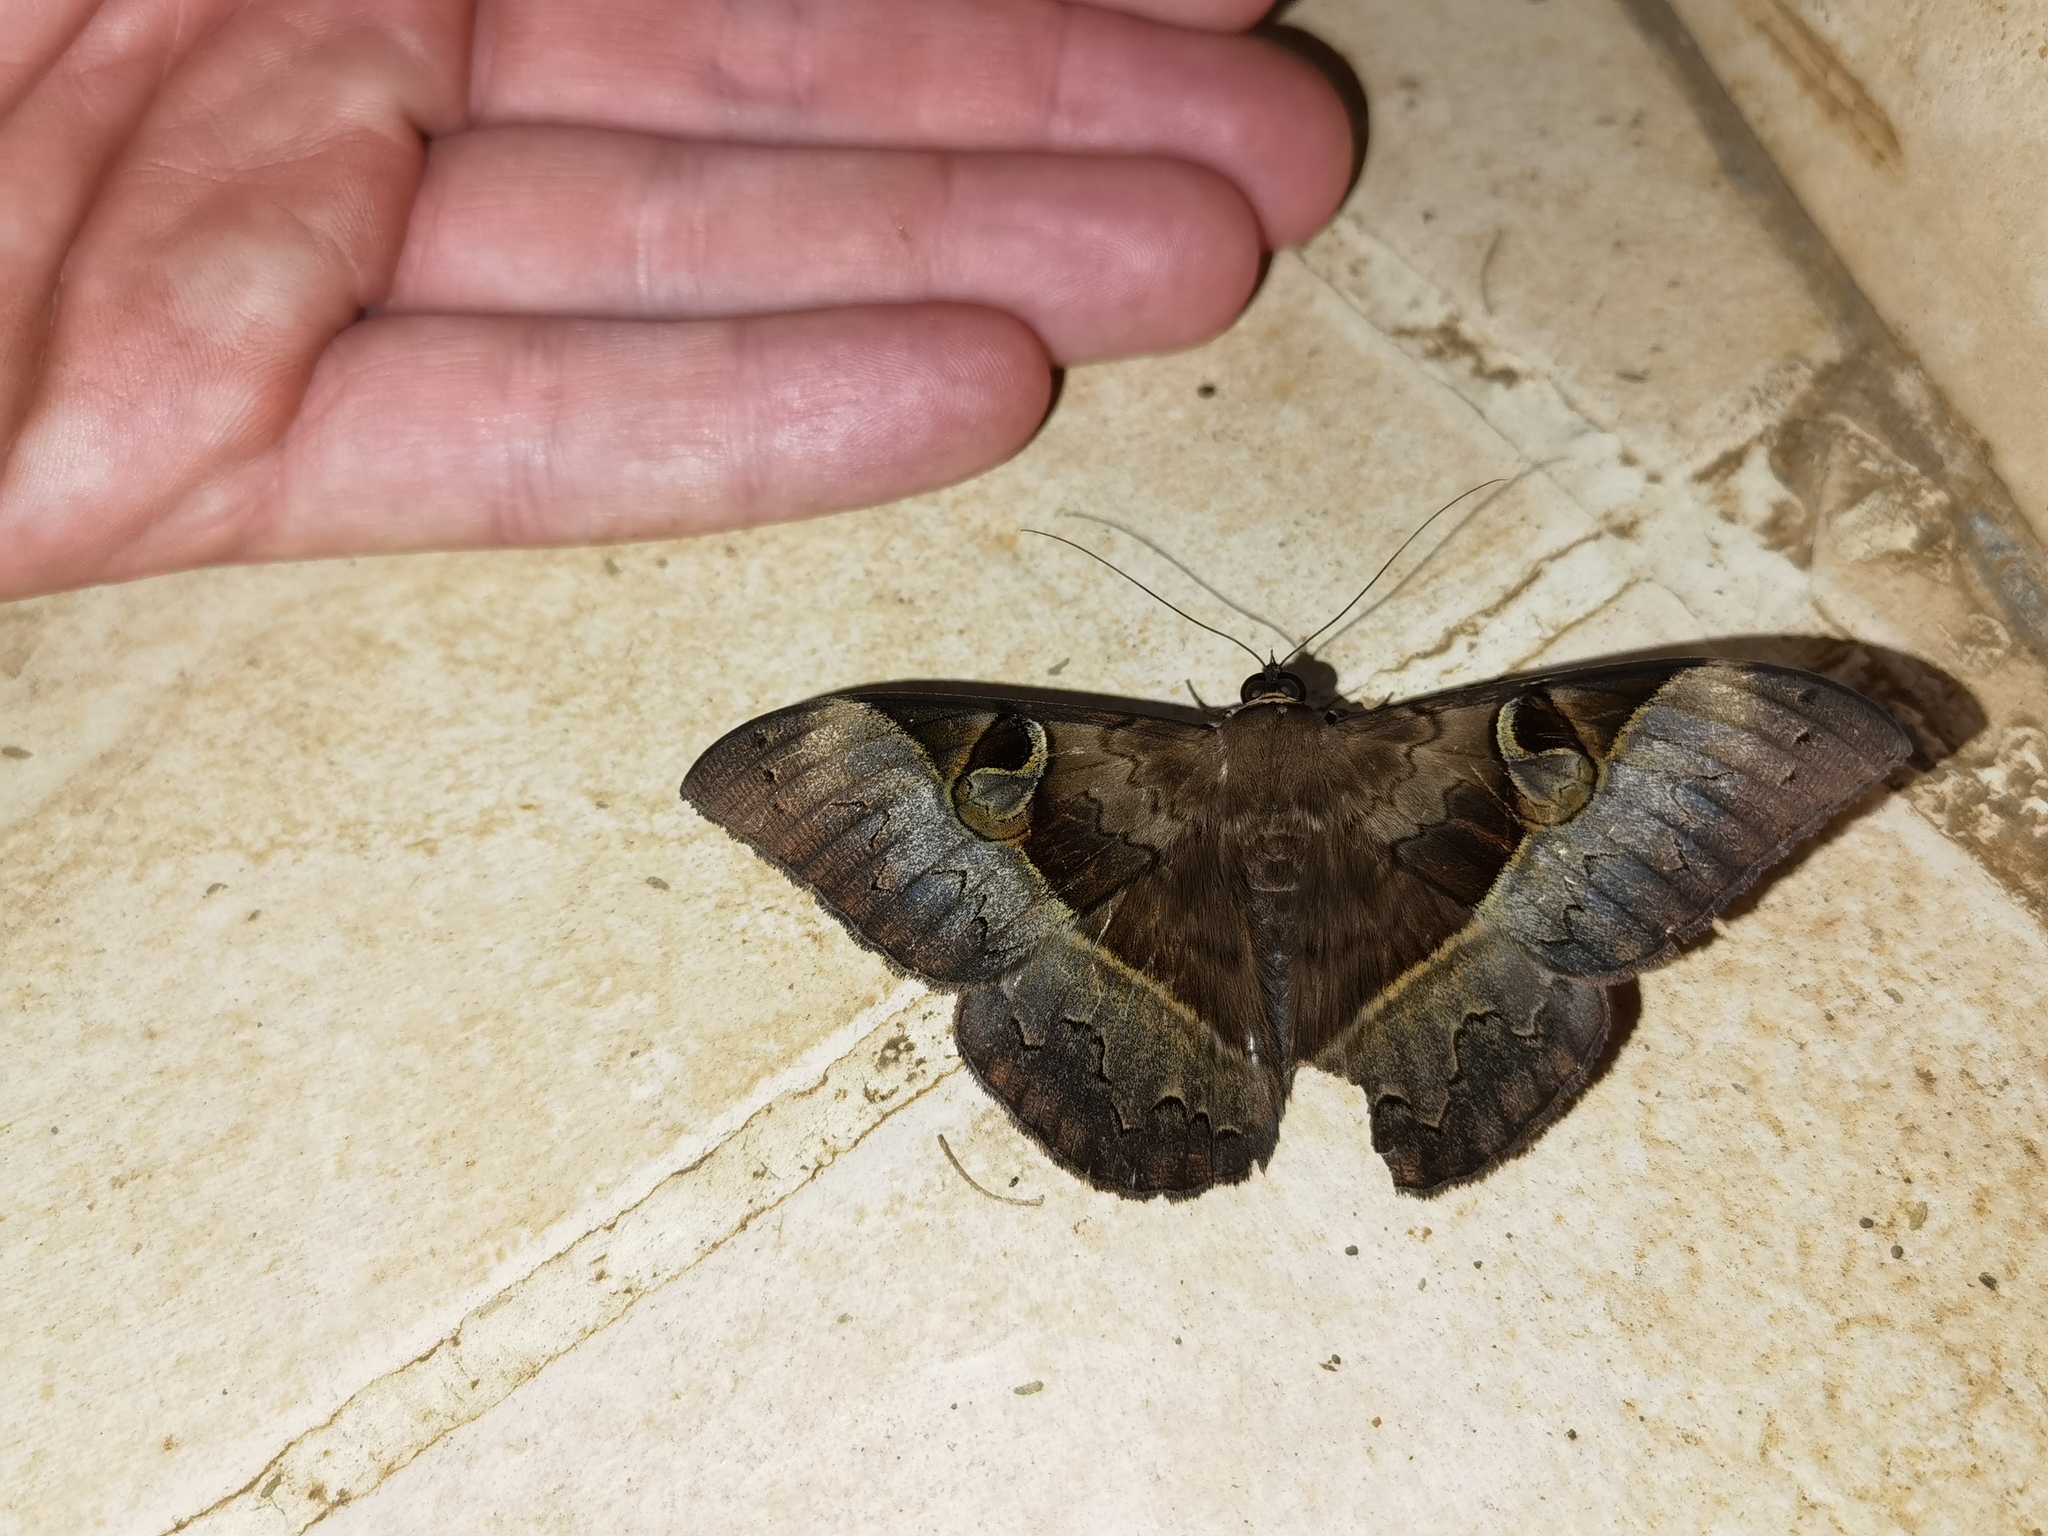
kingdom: Animalia
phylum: Arthropoda
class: Insecta
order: Lepidoptera
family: Erebidae
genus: Cyligramma
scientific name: Cyligramma fluctuosa
